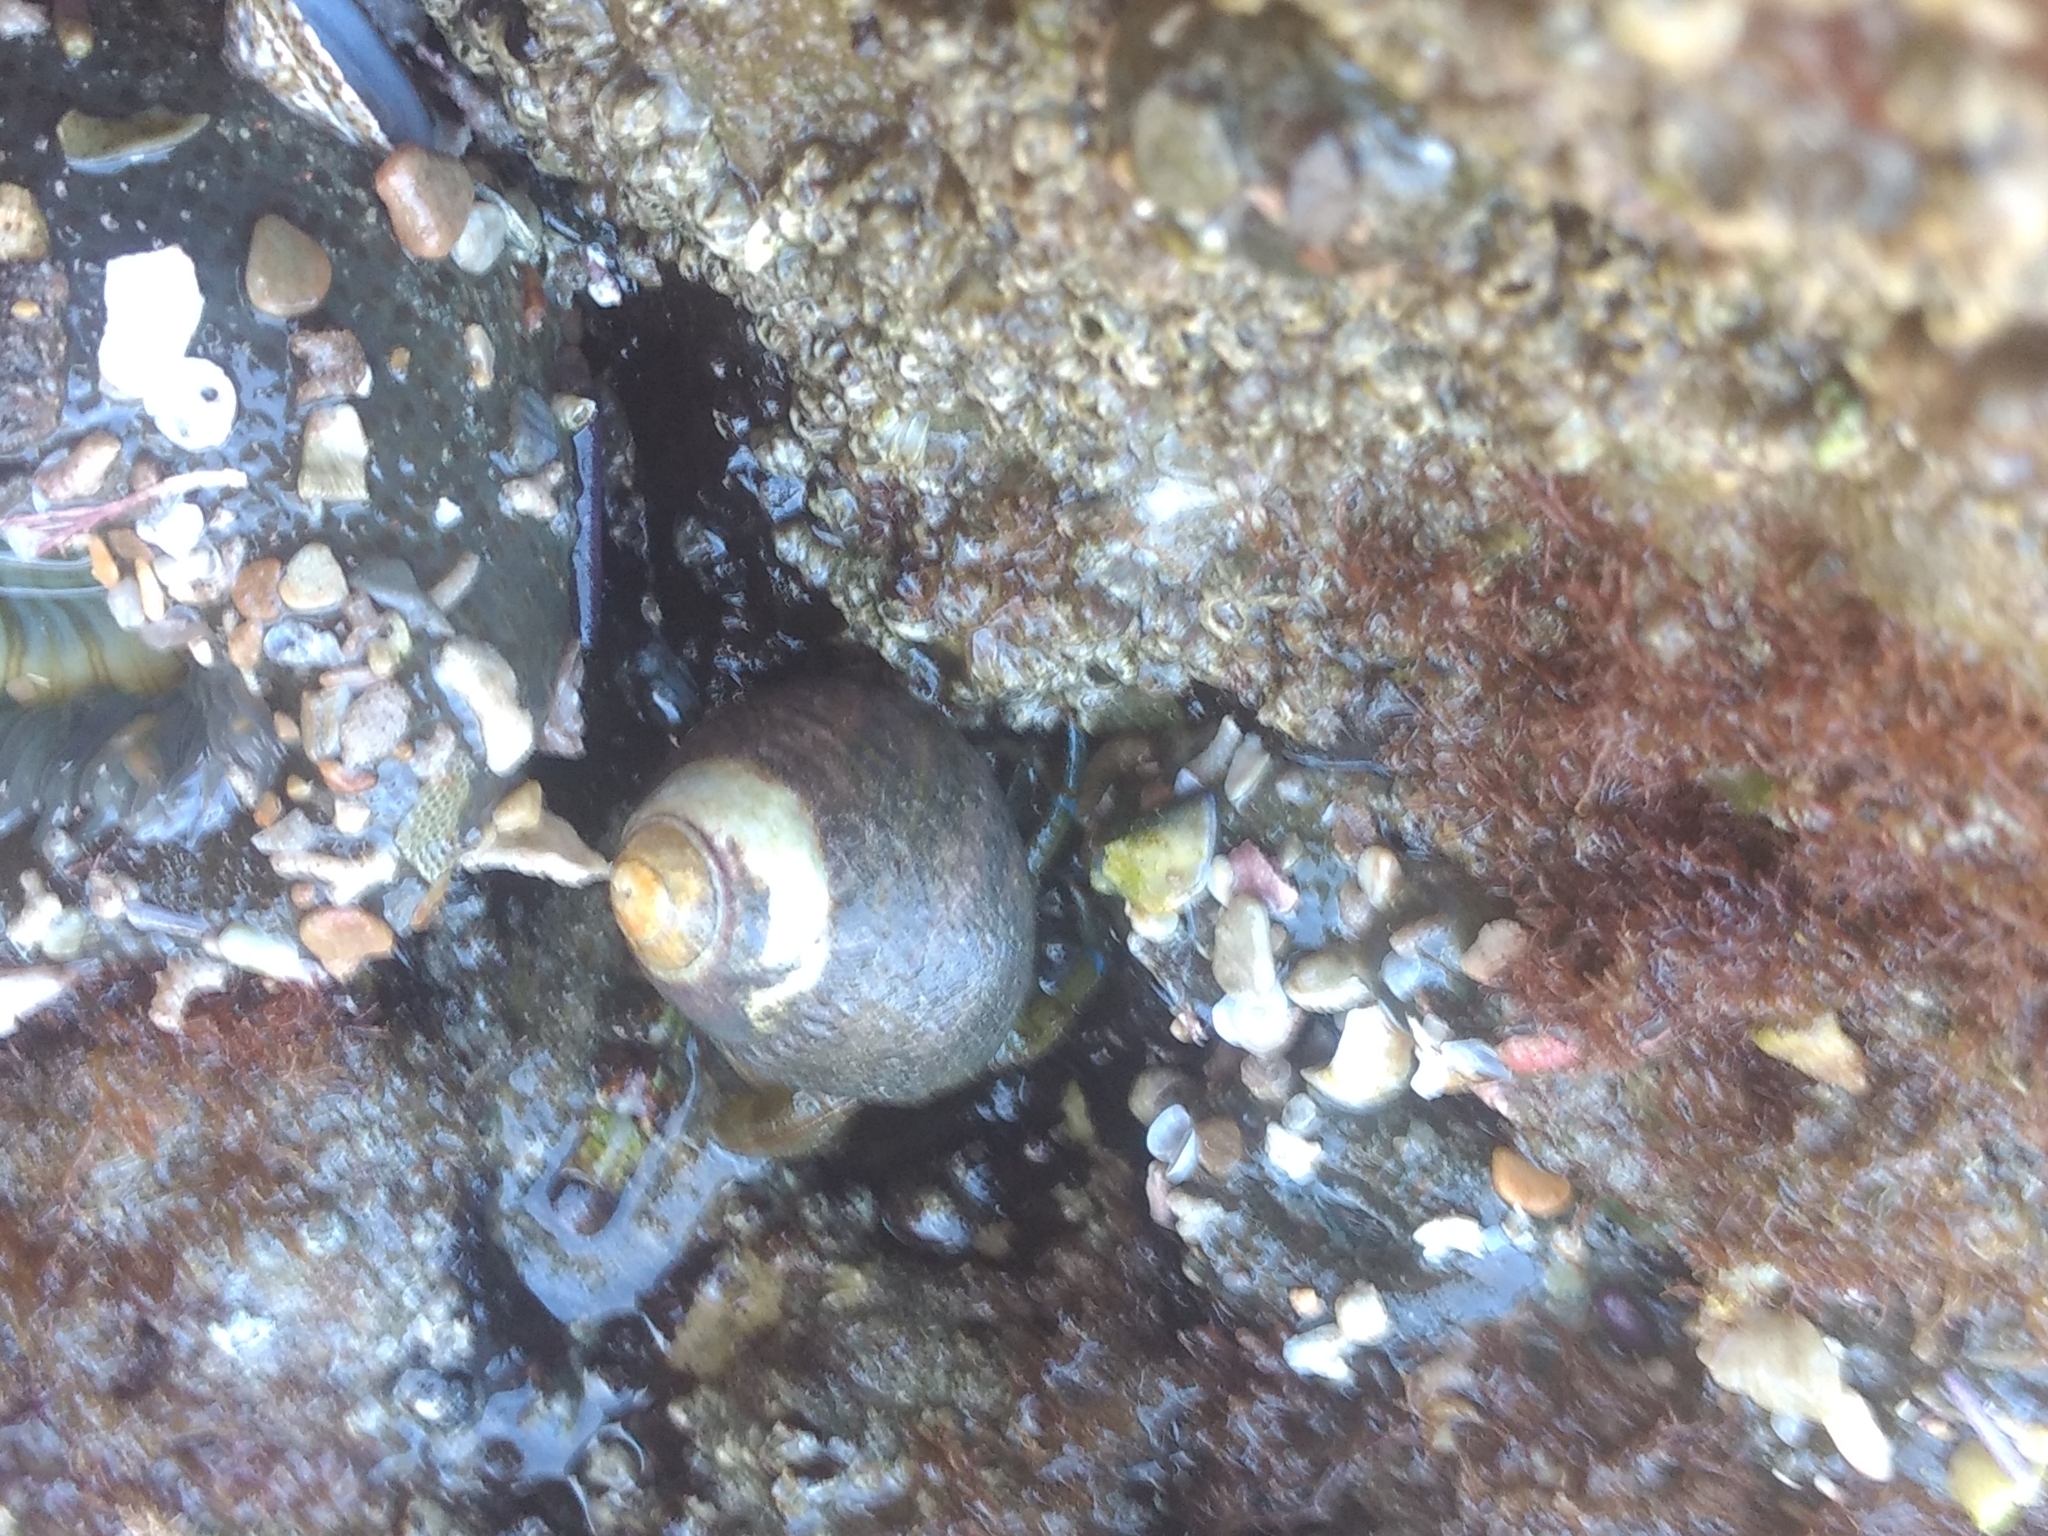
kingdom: Animalia
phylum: Mollusca
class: Gastropoda
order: Trochida
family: Tegulidae
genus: Tegula
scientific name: Tegula funebralis
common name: Black tegula
